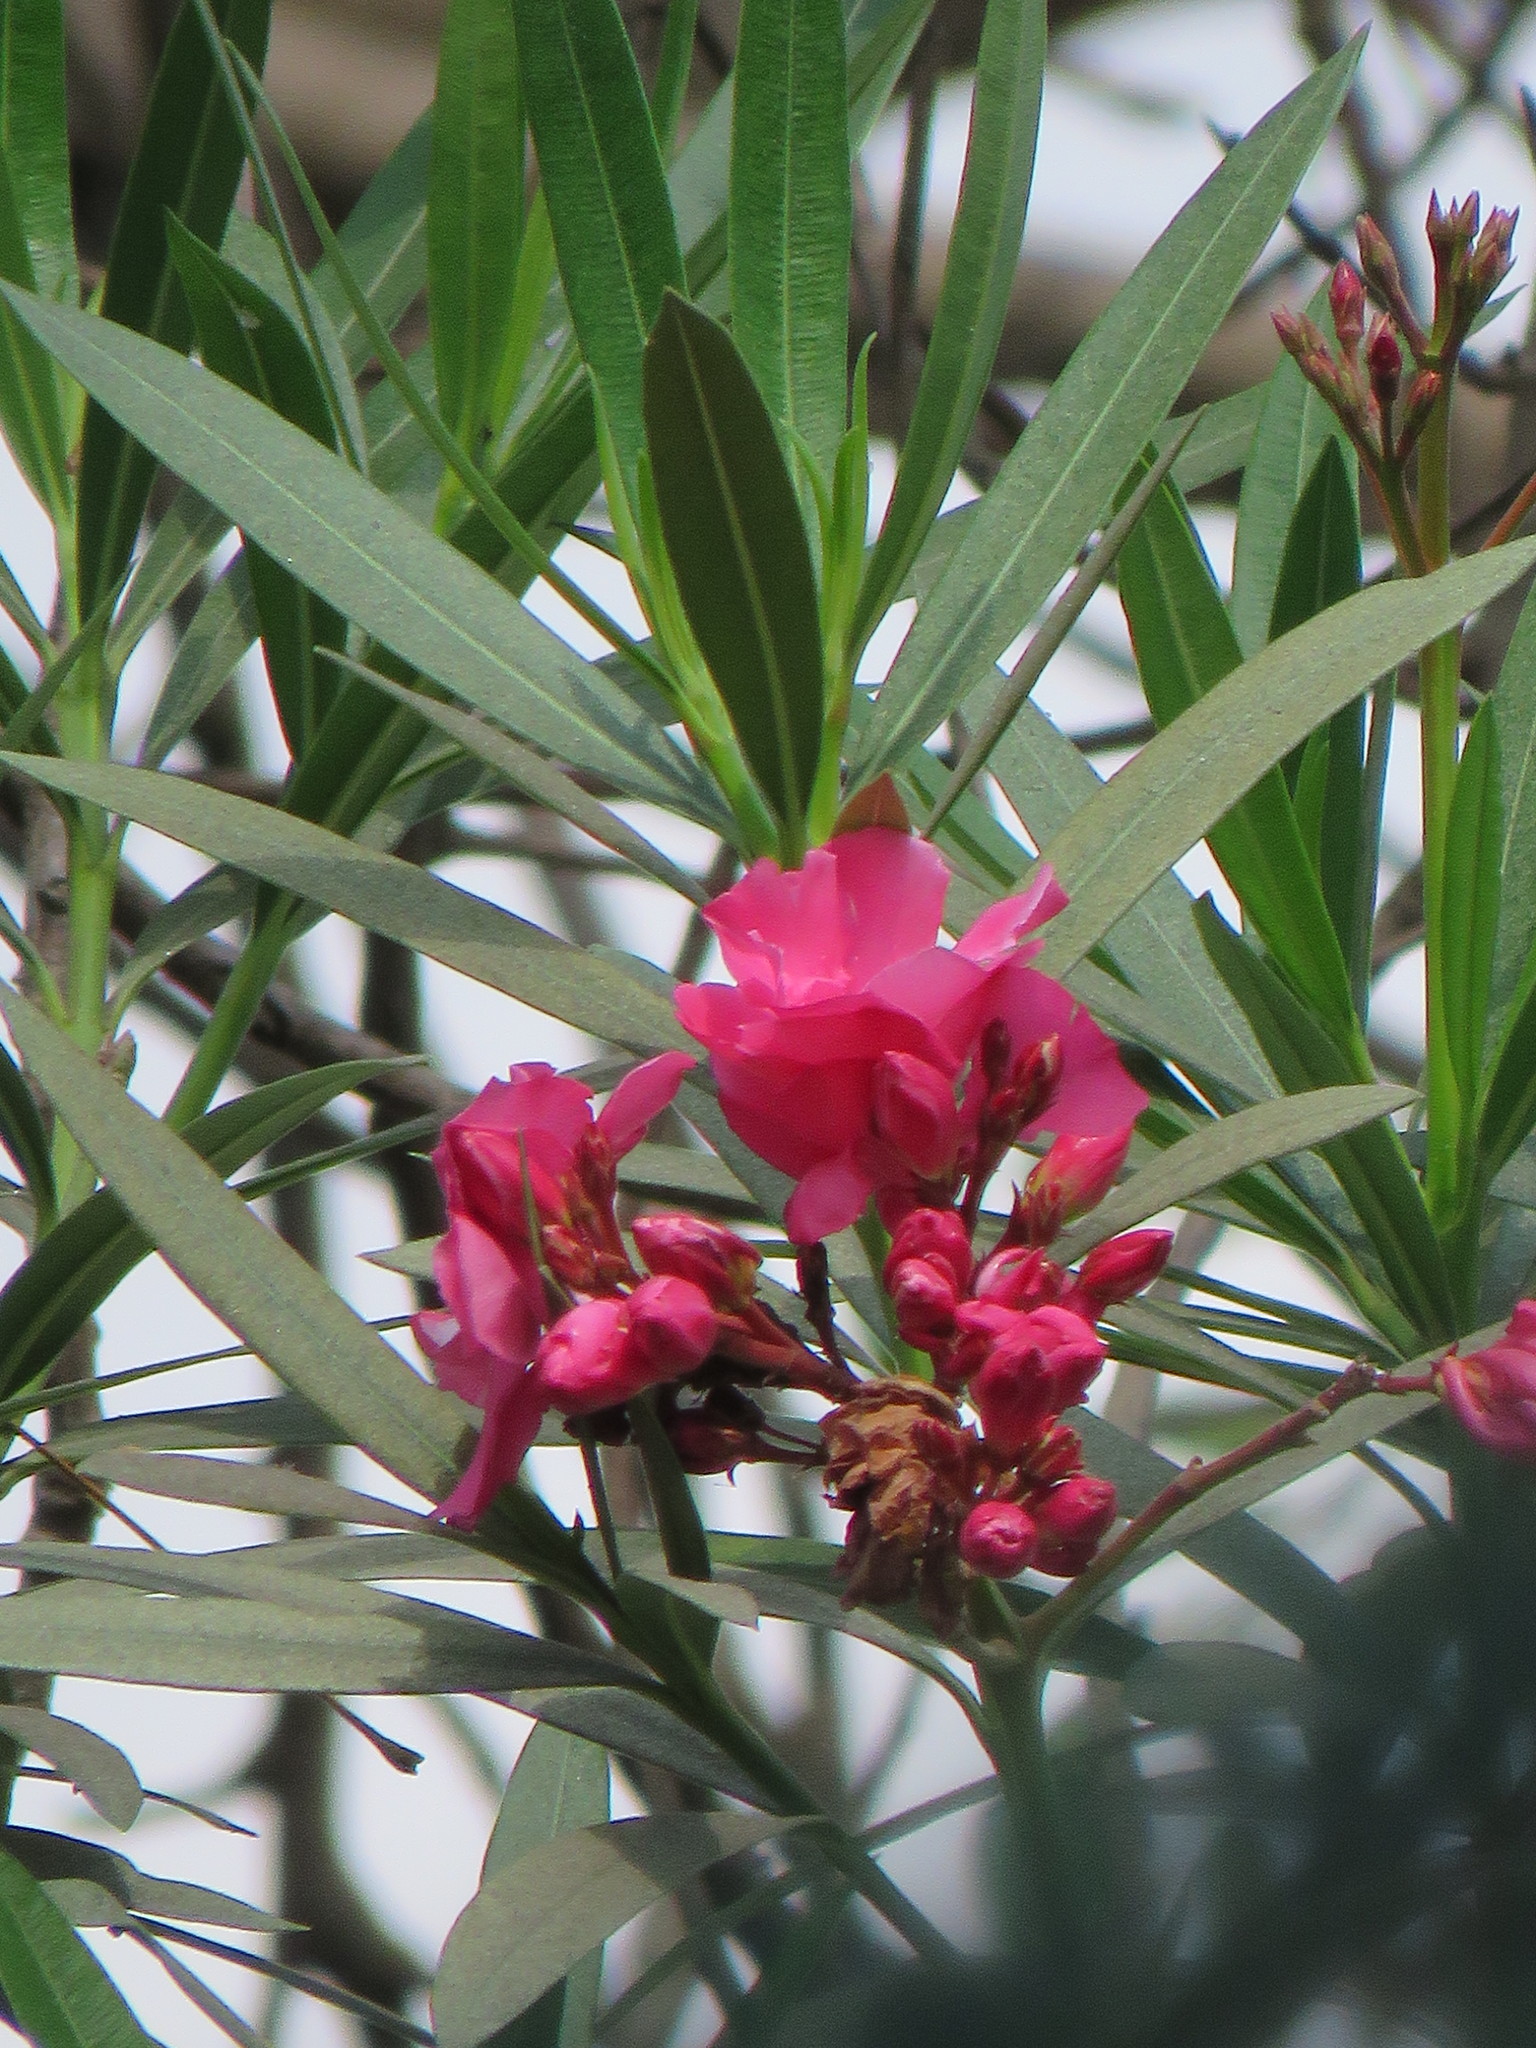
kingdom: Plantae
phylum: Tracheophyta
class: Magnoliopsida
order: Gentianales
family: Apocynaceae
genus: Nerium
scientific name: Nerium oleander
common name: Oleander
